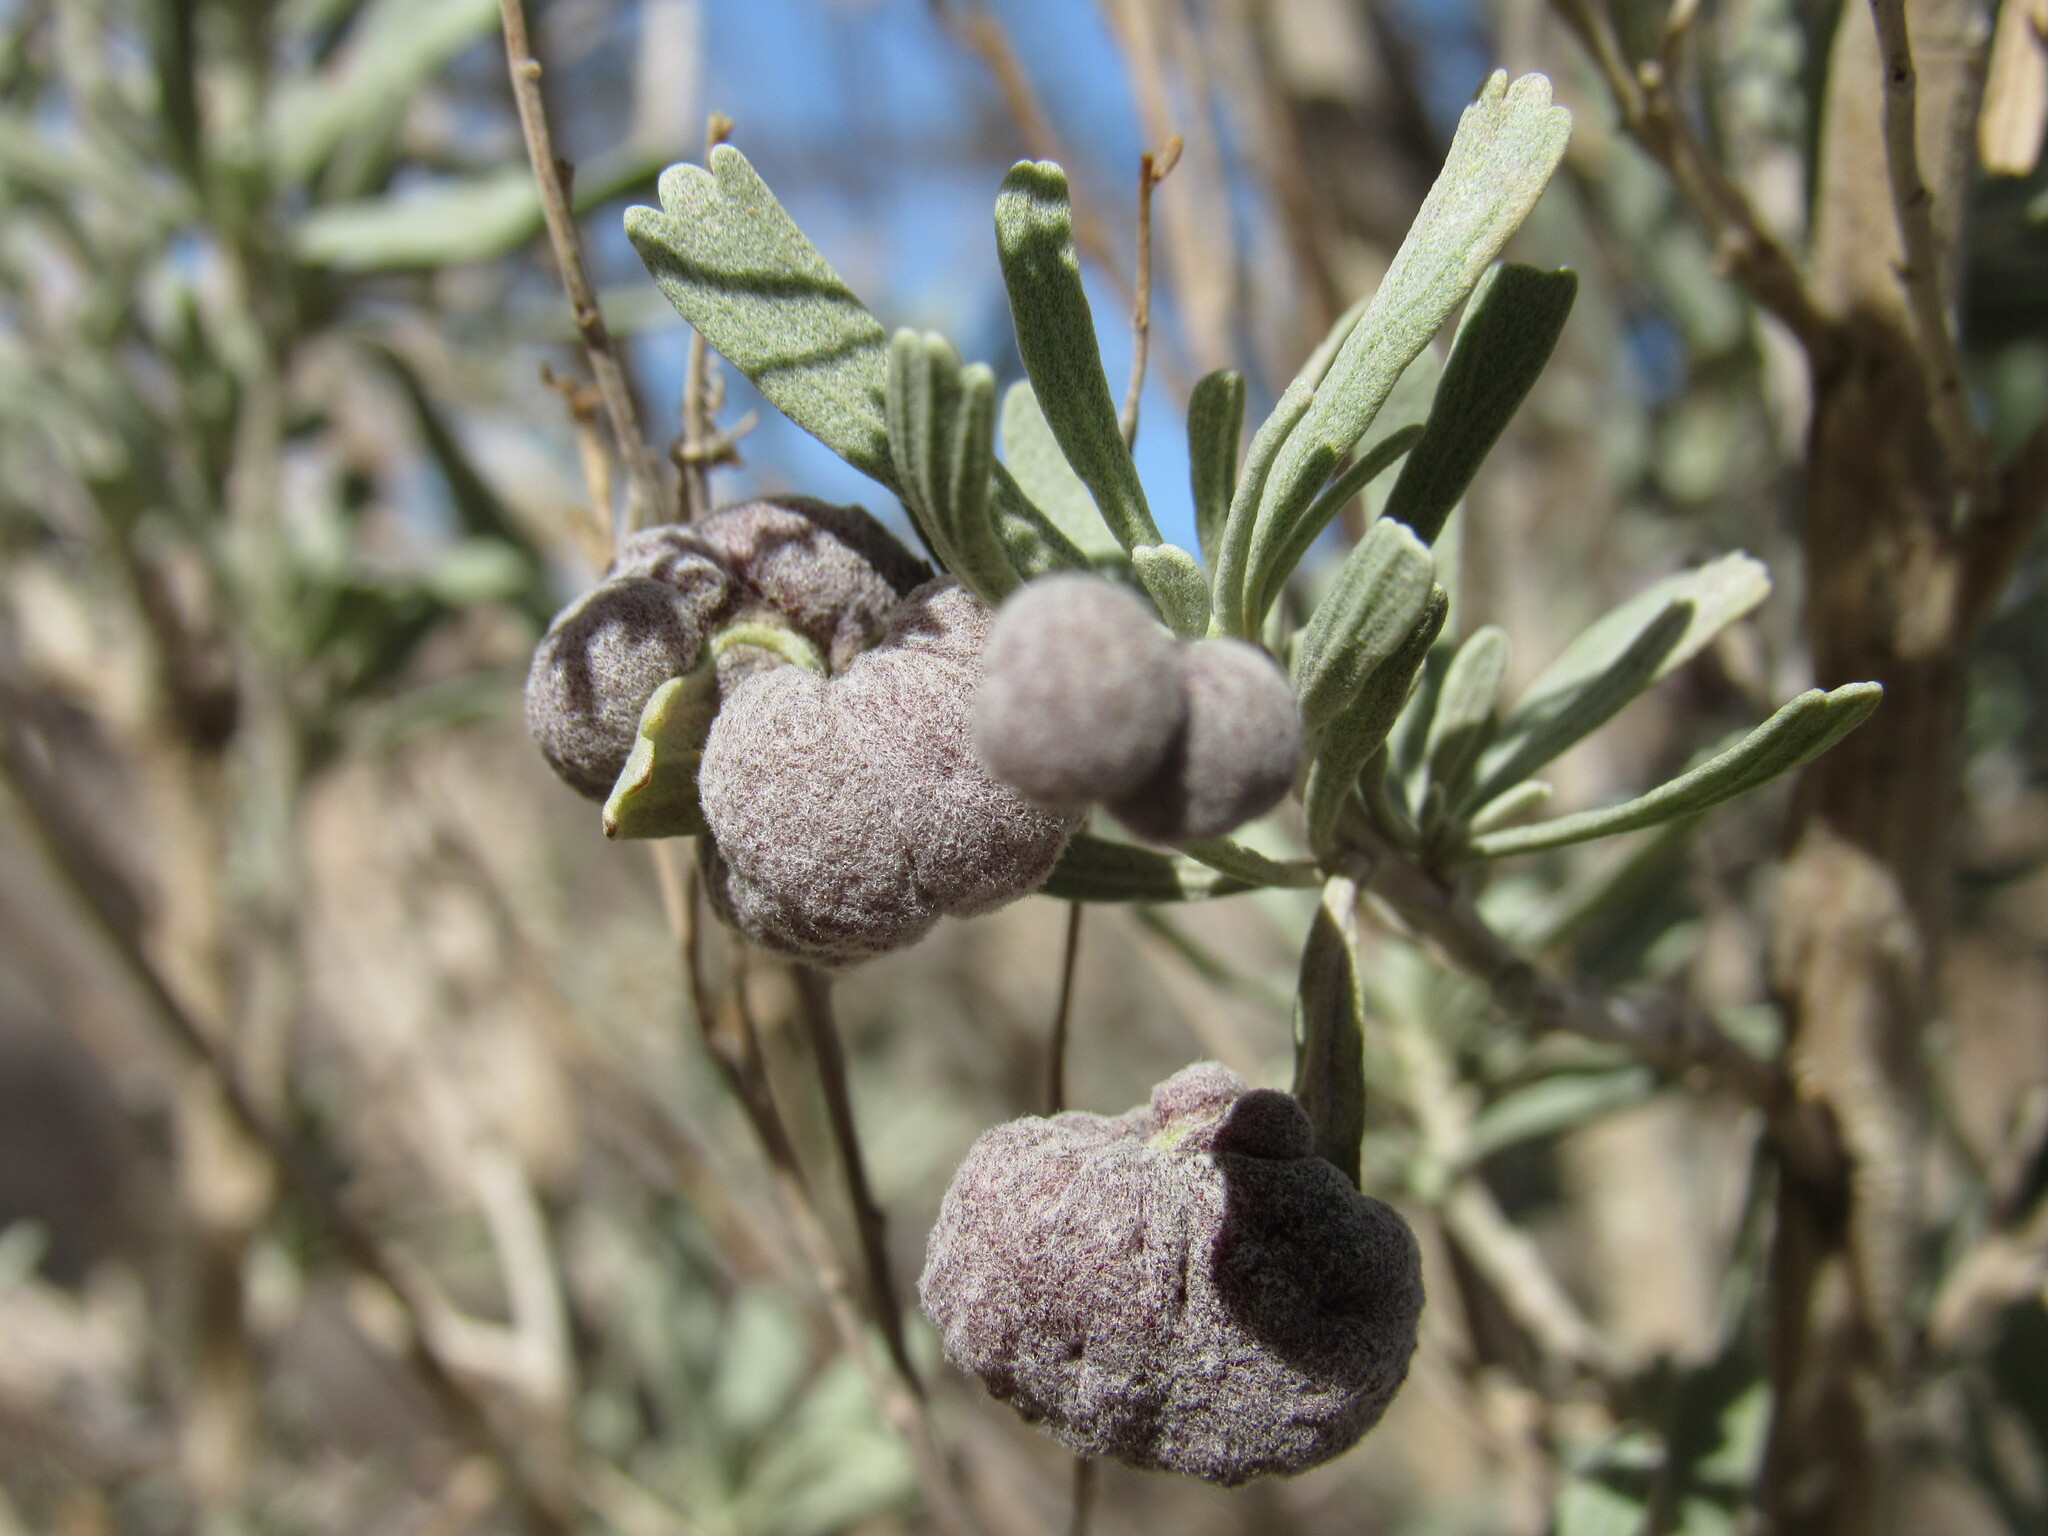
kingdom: Animalia
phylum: Arthropoda
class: Insecta
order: Diptera
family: Cecidomyiidae
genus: Rhopalomyia
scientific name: Rhopalomyia pomum
